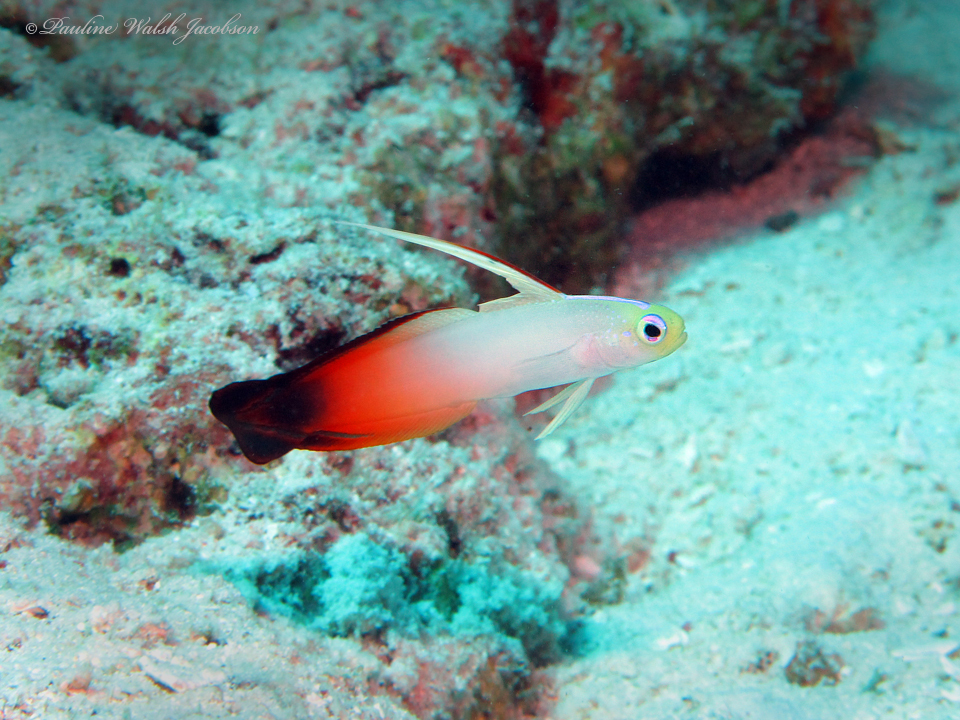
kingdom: Animalia
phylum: Chordata
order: Perciformes
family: Microdesmidae
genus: Nemateleotris
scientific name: Nemateleotris magnifica
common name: Fire goby
